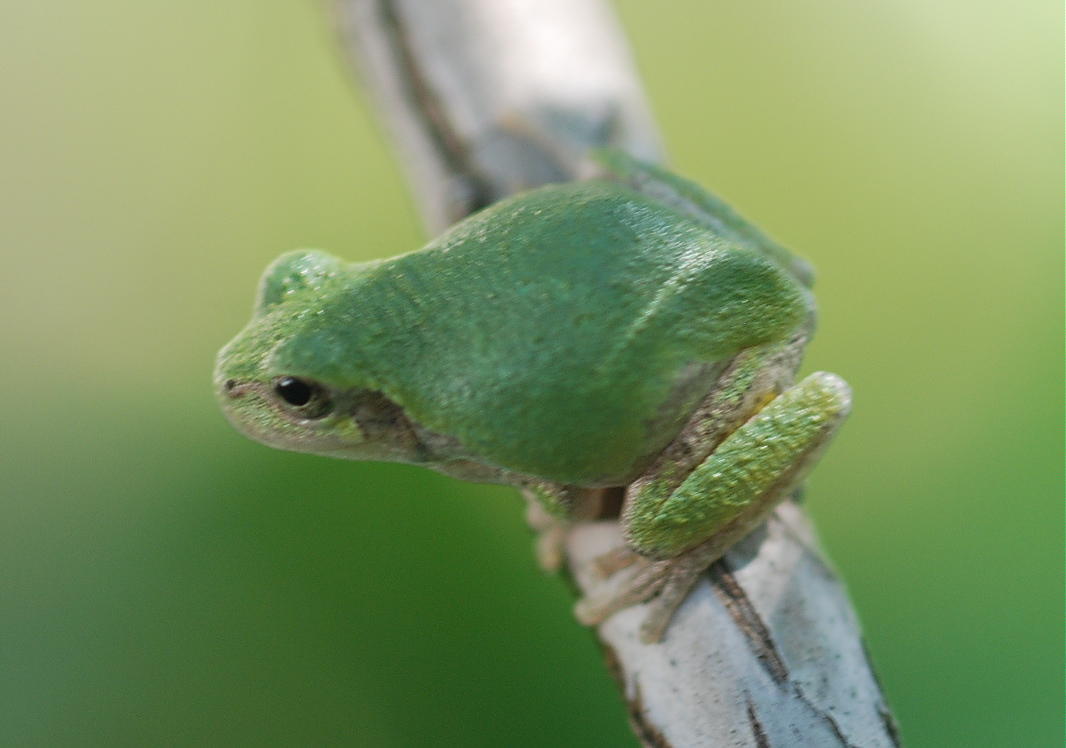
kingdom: Animalia
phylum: Chordata
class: Amphibia
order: Anura
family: Hylidae
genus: Dryophytes
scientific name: Dryophytes versicolor
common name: Gray treefrog
